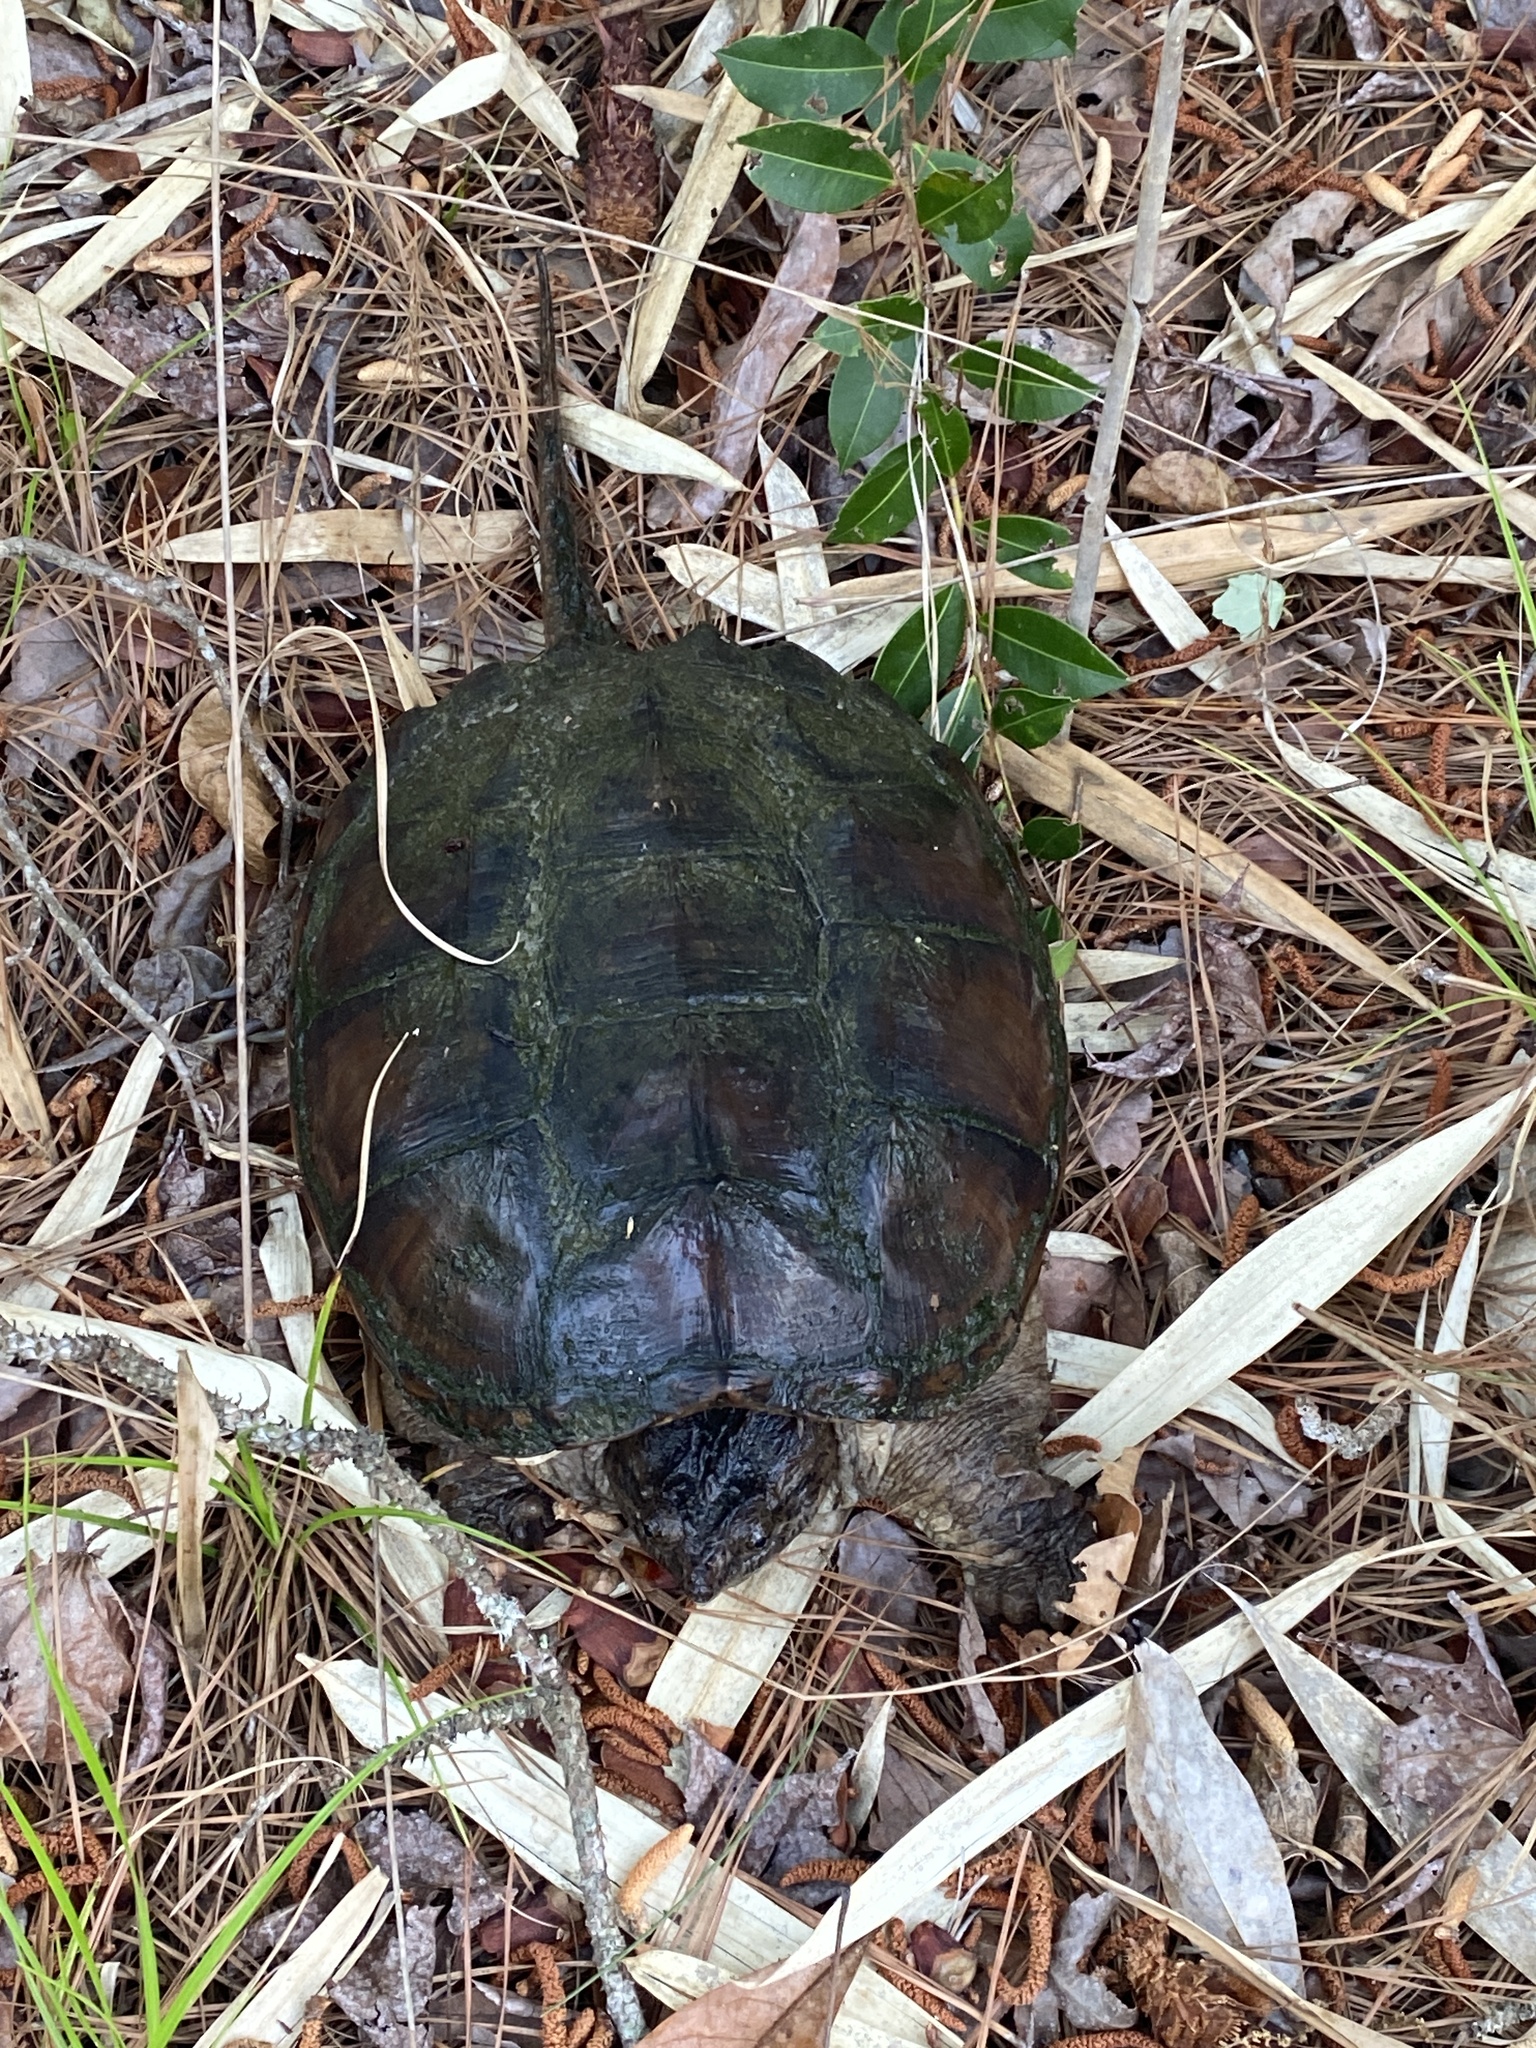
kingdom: Animalia
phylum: Chordata
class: Testudines
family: Chelydridae
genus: Chelydra
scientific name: Chelydra serpentina
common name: Common snapping turtle
